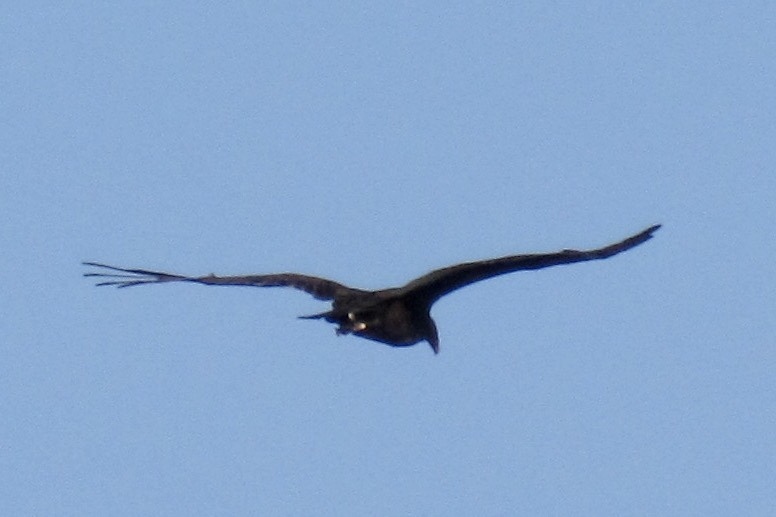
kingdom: Animalia
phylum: Chordata
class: Aves
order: Accipitriformes
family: Cathartidae
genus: Cathartes
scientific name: Cathartes aura
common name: Turkey vulture
